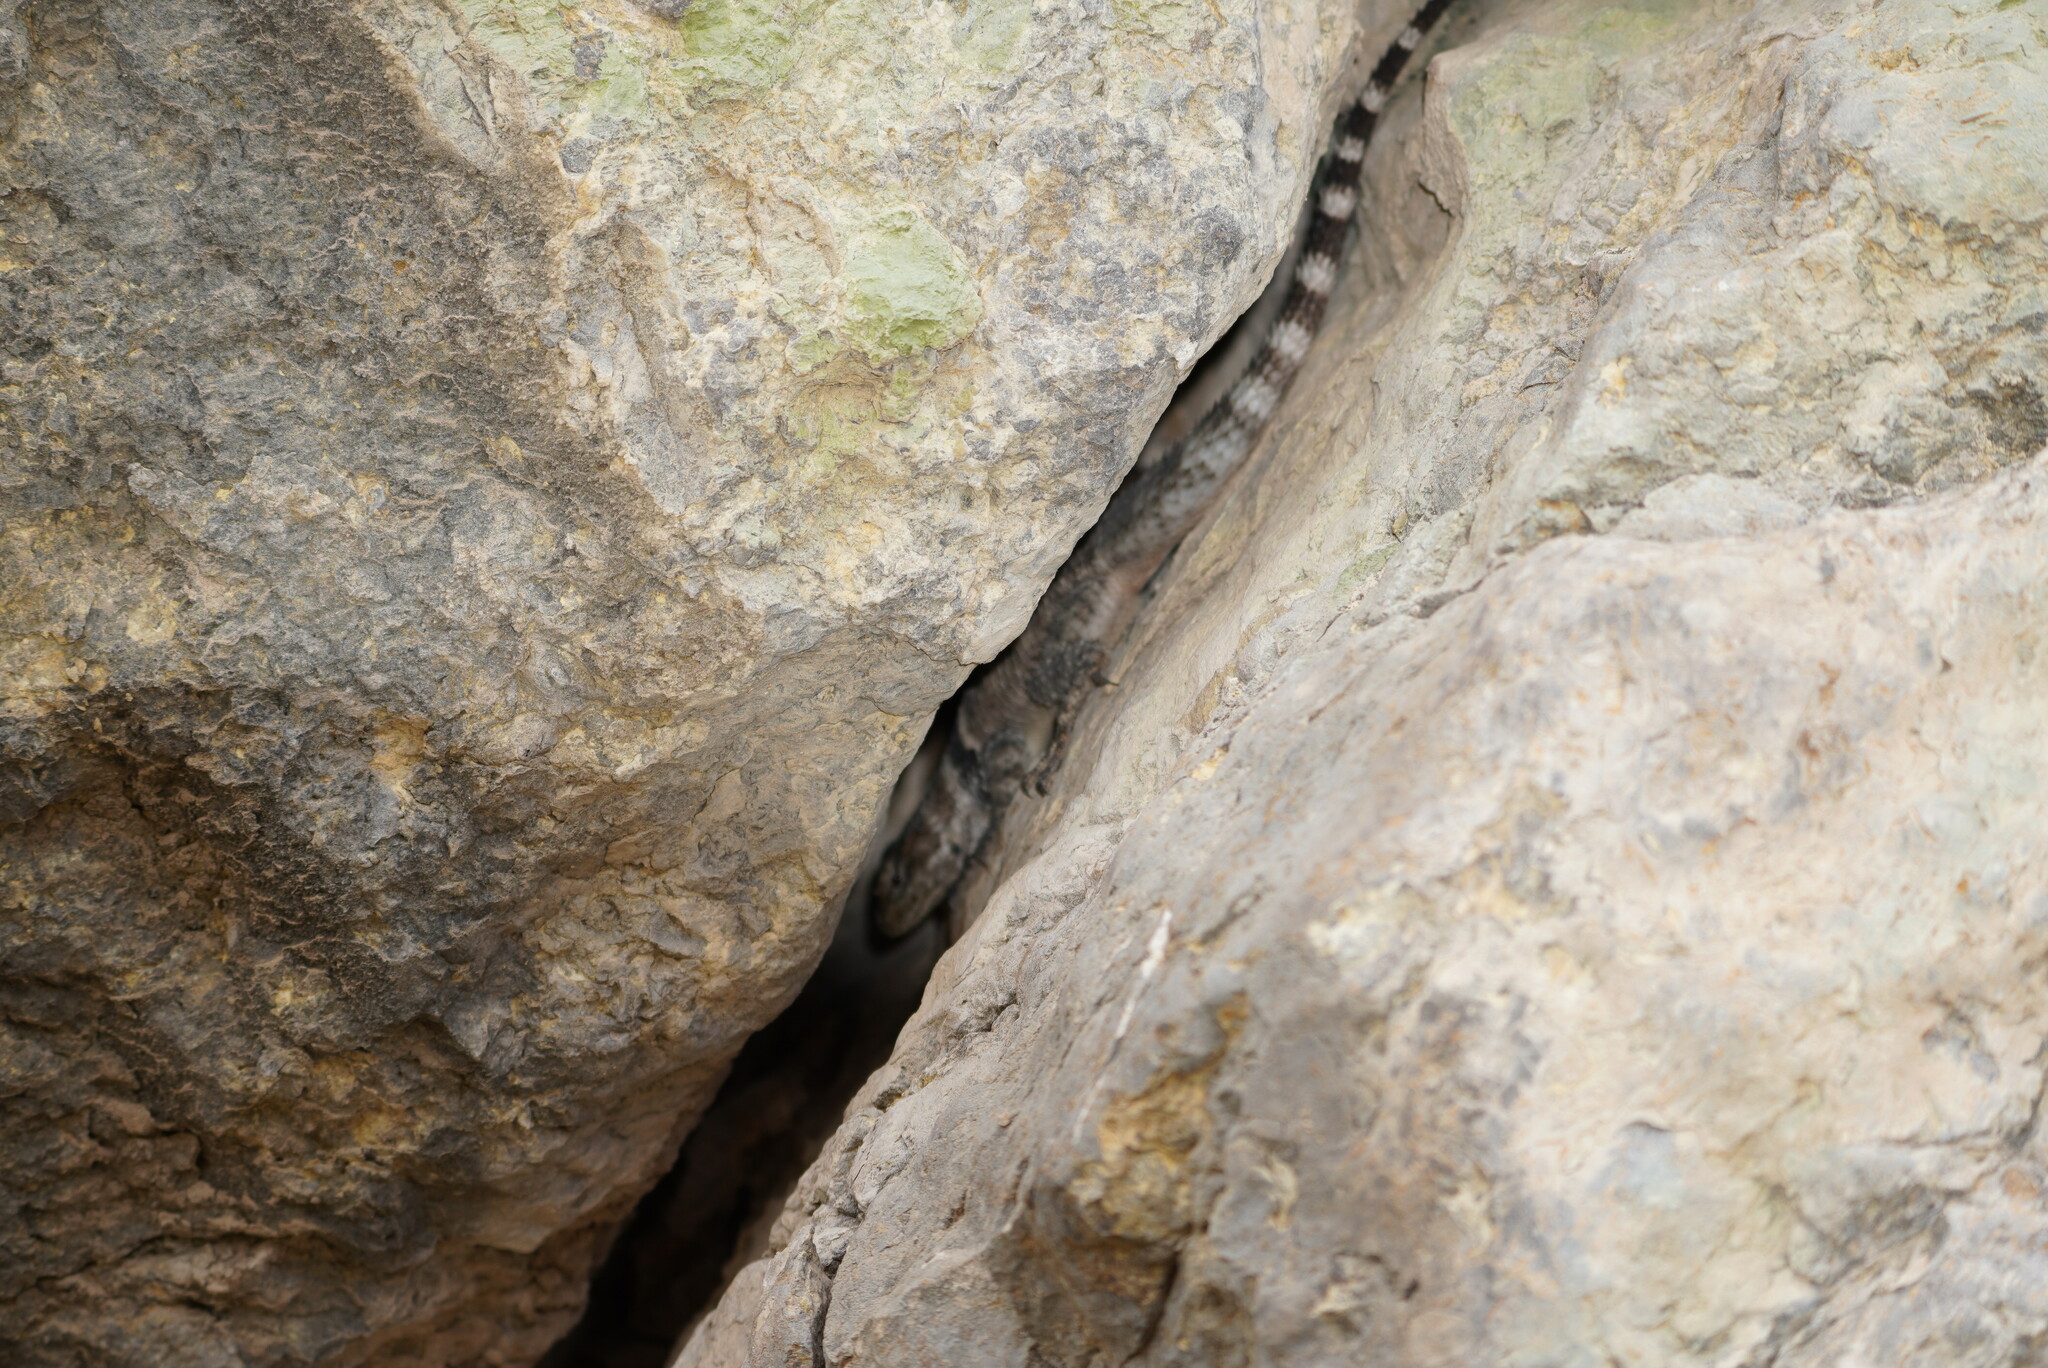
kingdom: Animalia
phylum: Chordata
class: Squamata
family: Phrynosomatidae
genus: Sceloporus
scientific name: Sceloporus poinsettii
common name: Crevice spiny lizard
